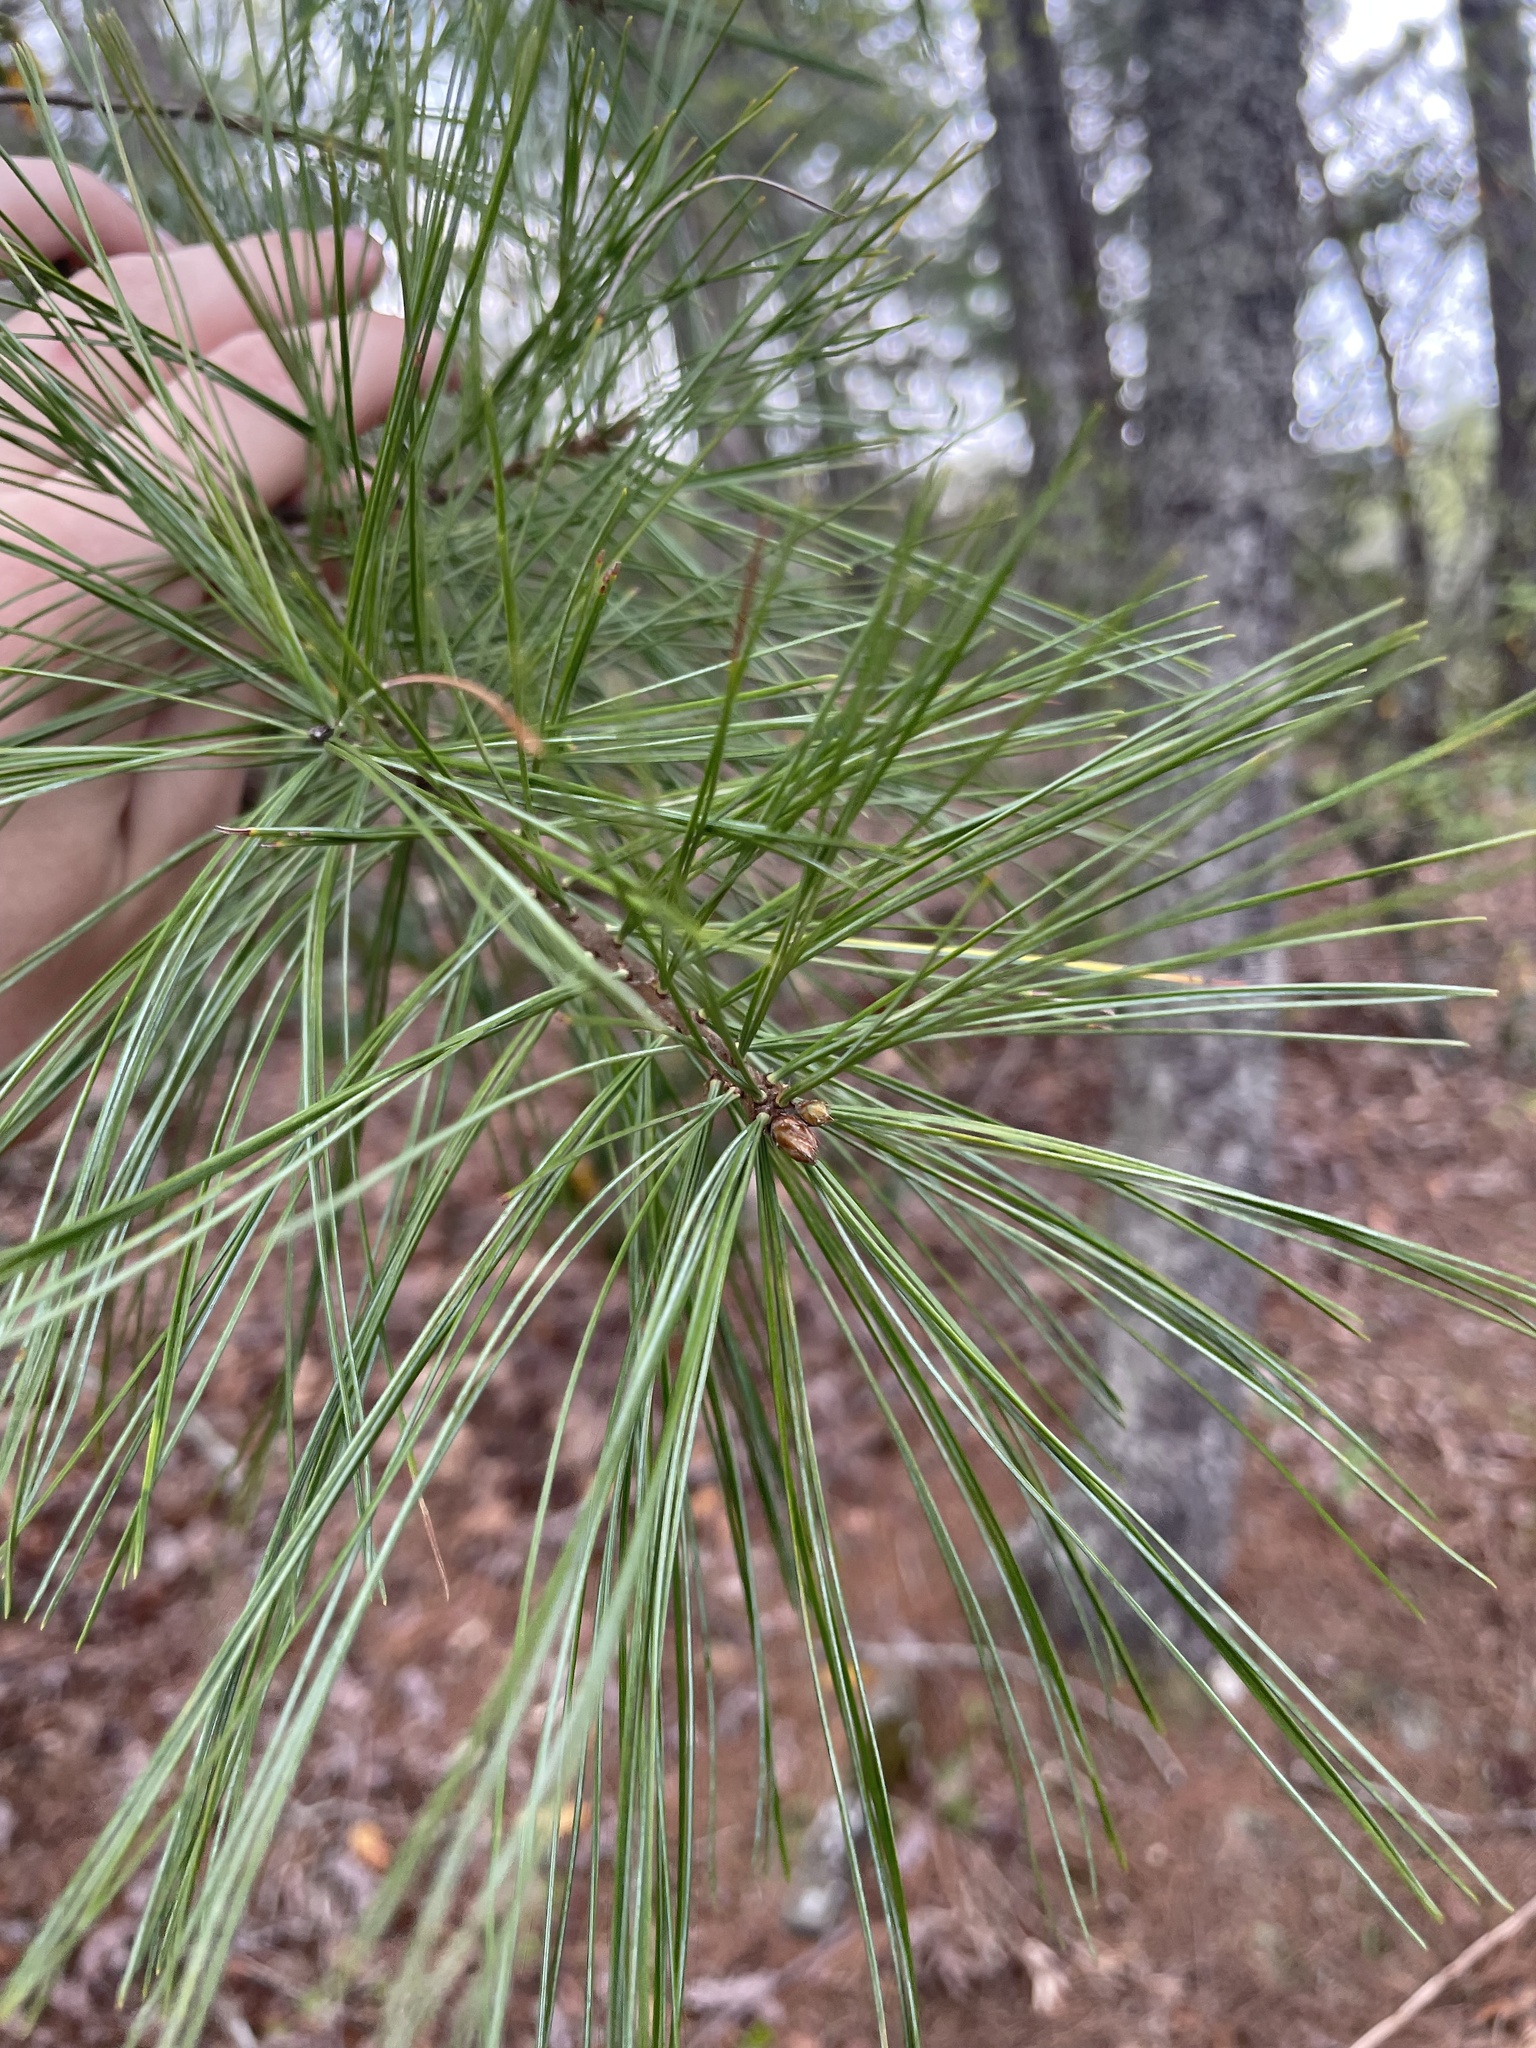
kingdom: Plantae
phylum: Tracheophyta
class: Pinopsida
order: Pinales
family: Pinaceae
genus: Pinus
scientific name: Pinus strobus
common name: Weymouth pine
